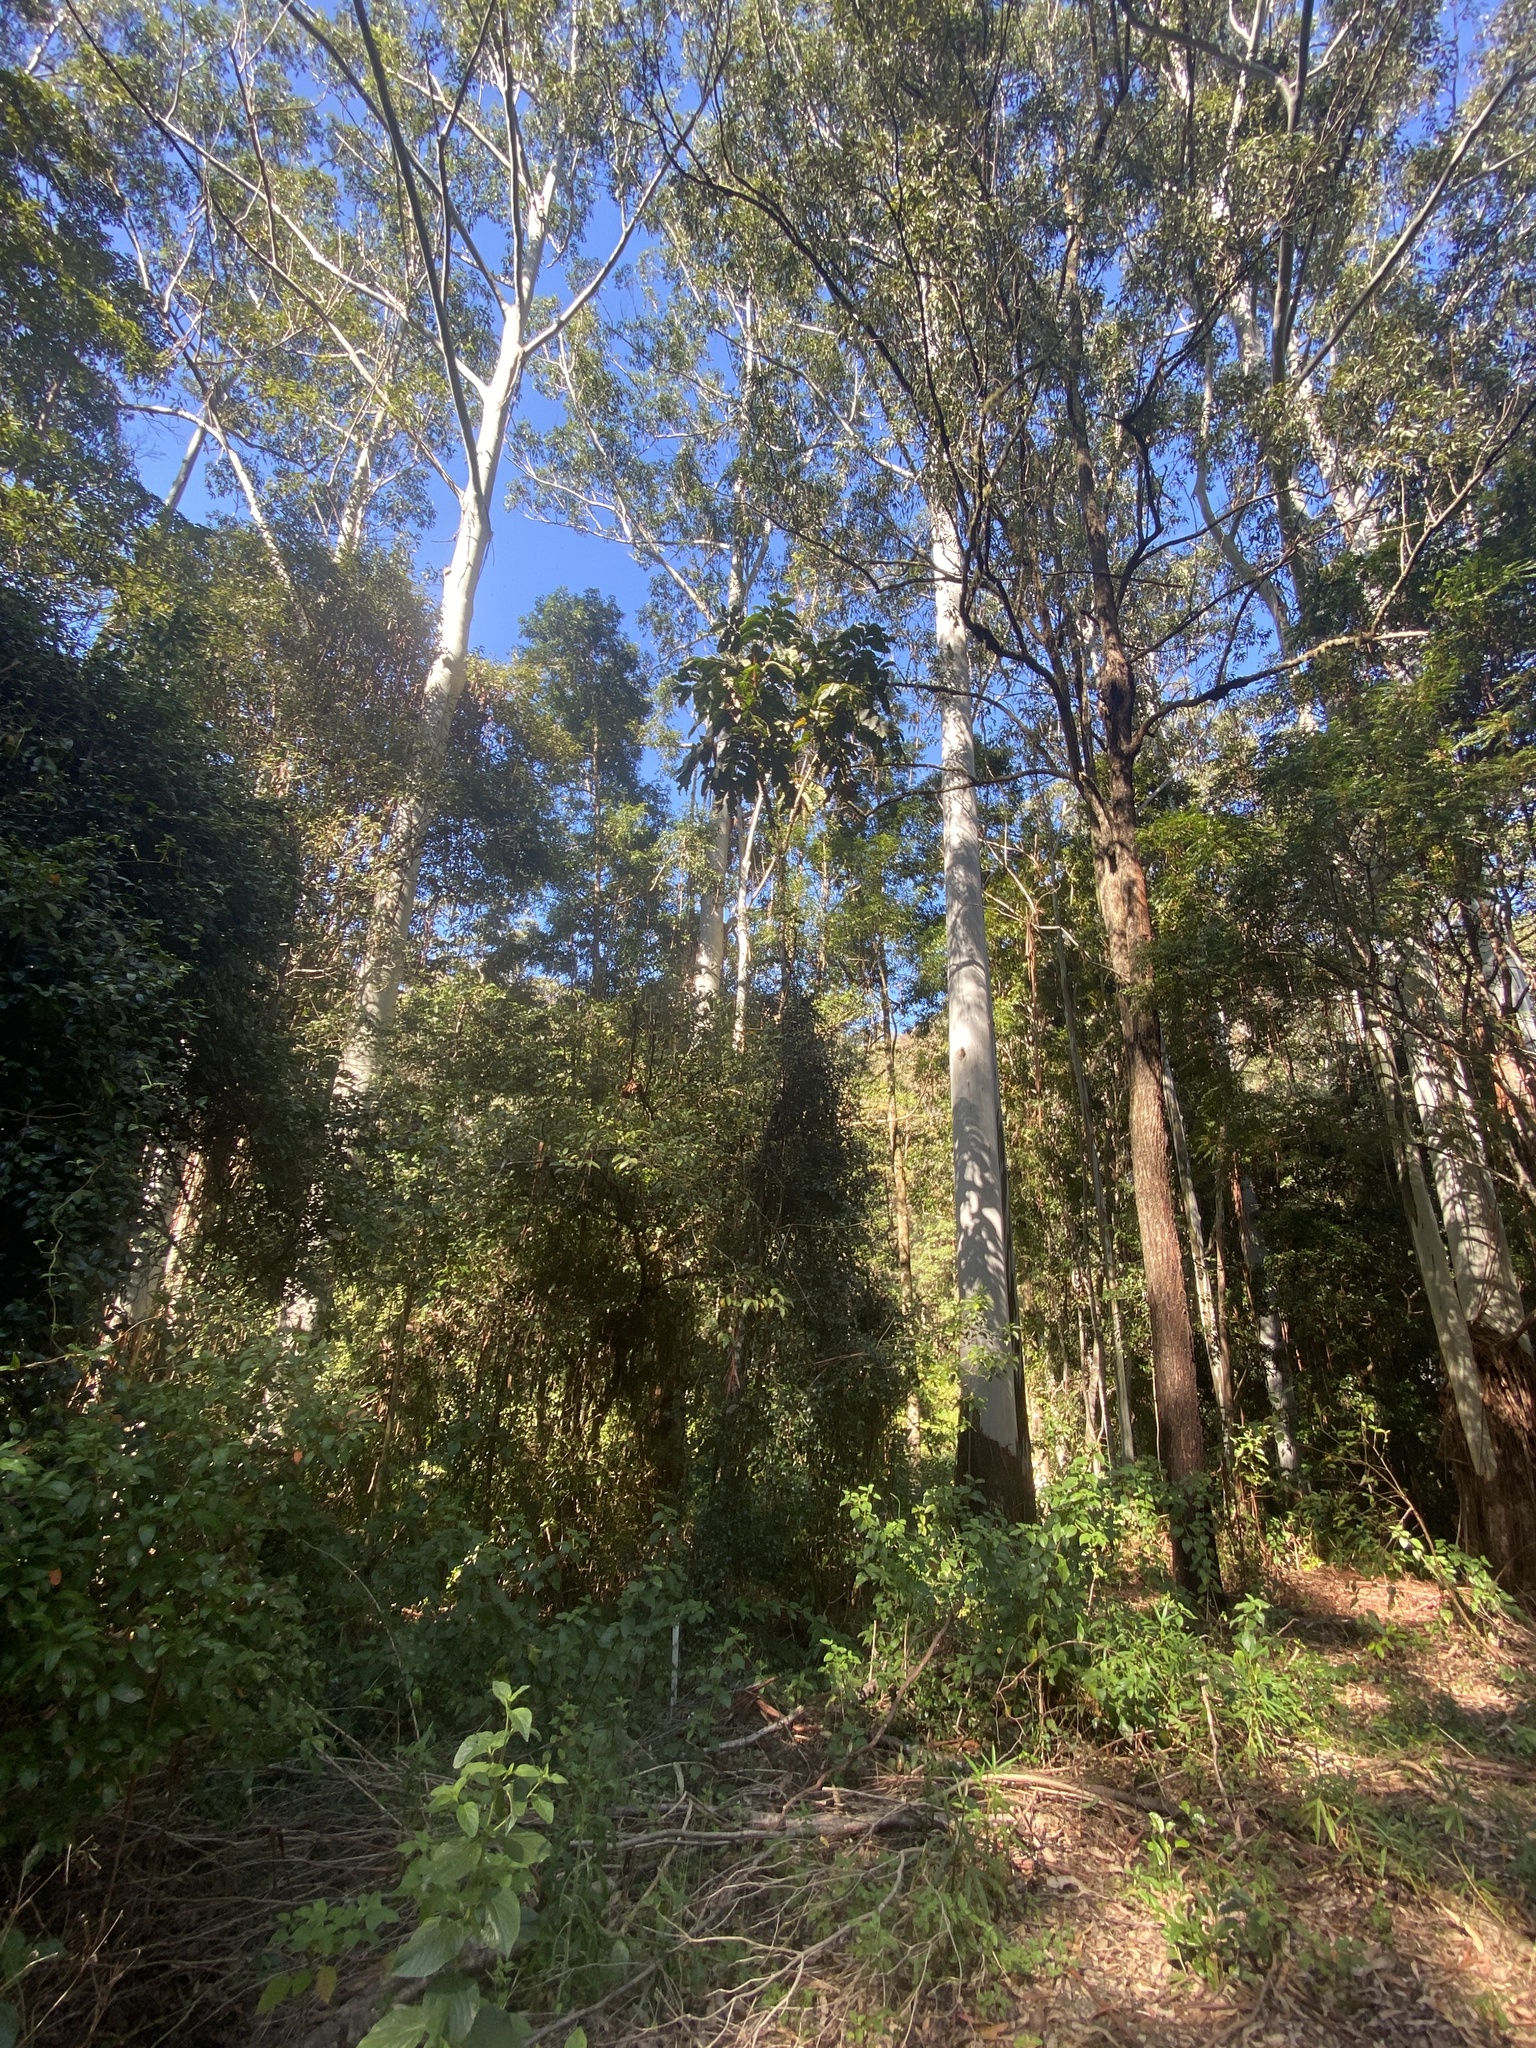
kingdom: Plantae
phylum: Tracheophyta
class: Magnoliopsida
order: Sapindales
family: Sapindaceae
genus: Diploglottis
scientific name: Diploglottis australis
